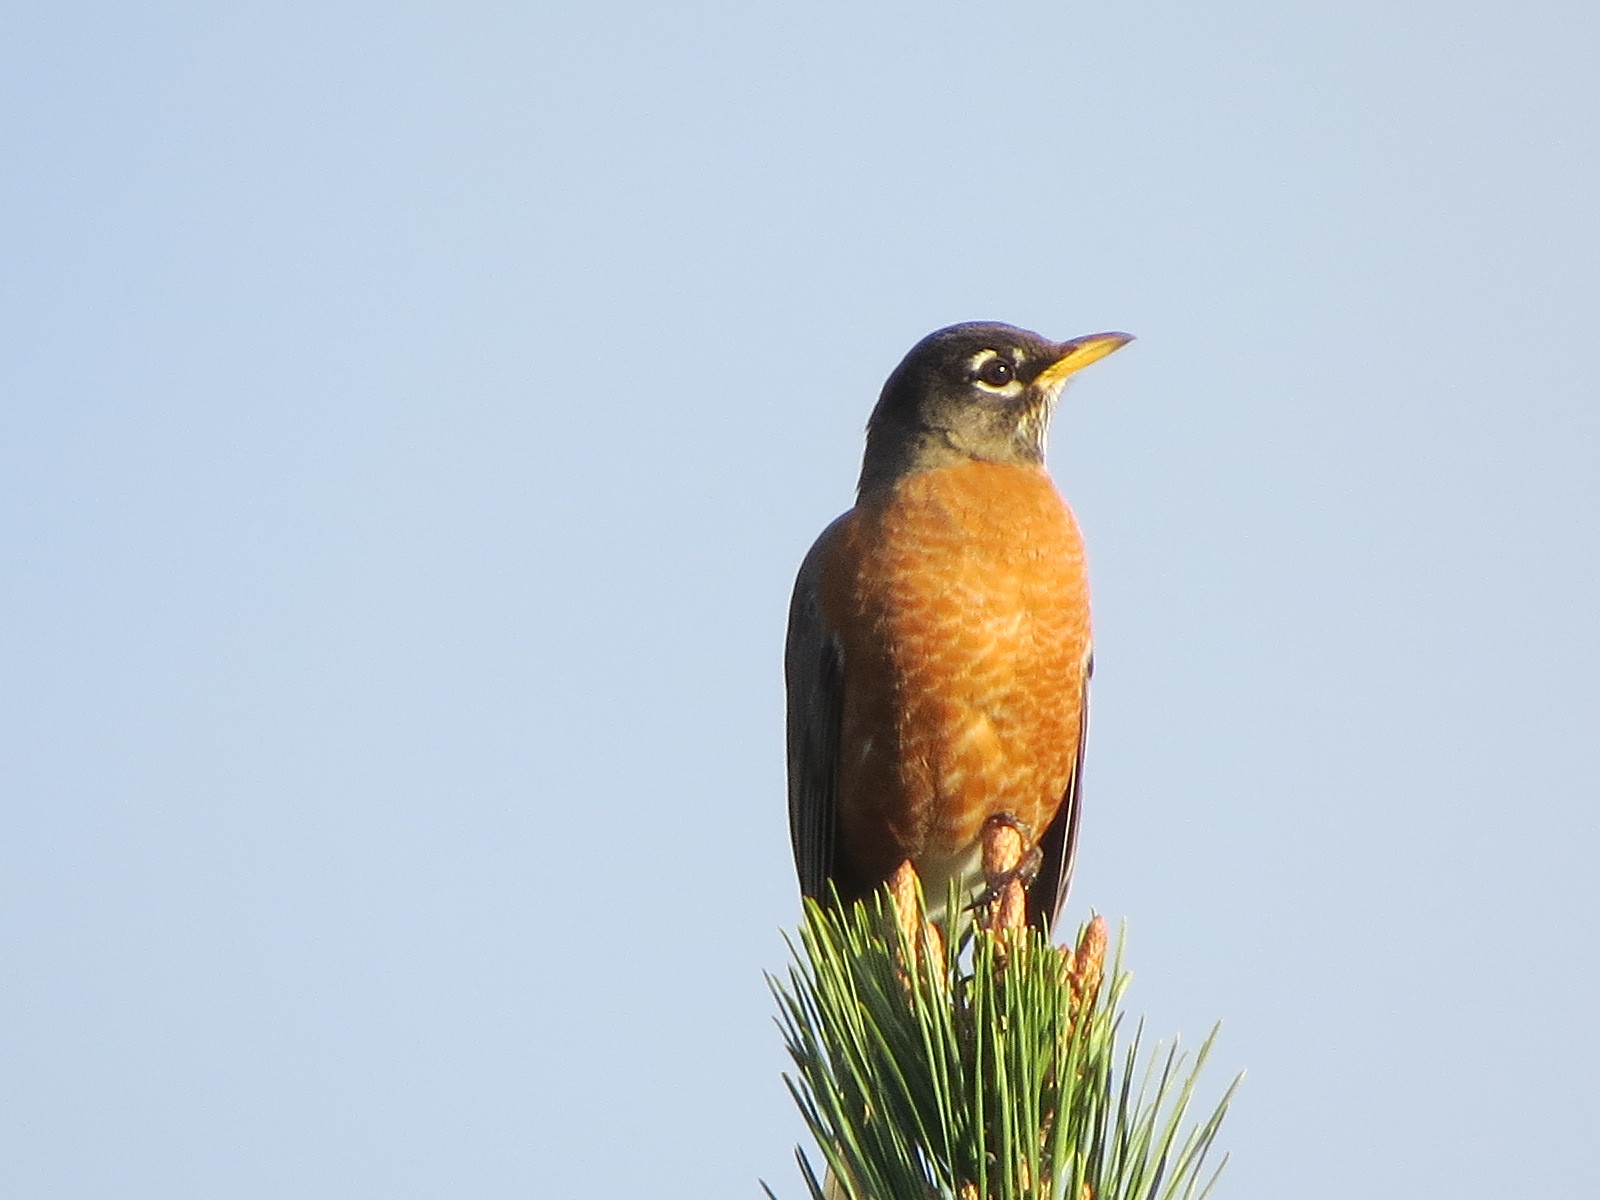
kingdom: Animalia
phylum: Chordata
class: Aves
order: Passeriformes
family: Turdidae
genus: Turdus
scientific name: Turdus migratorius
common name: American robin
